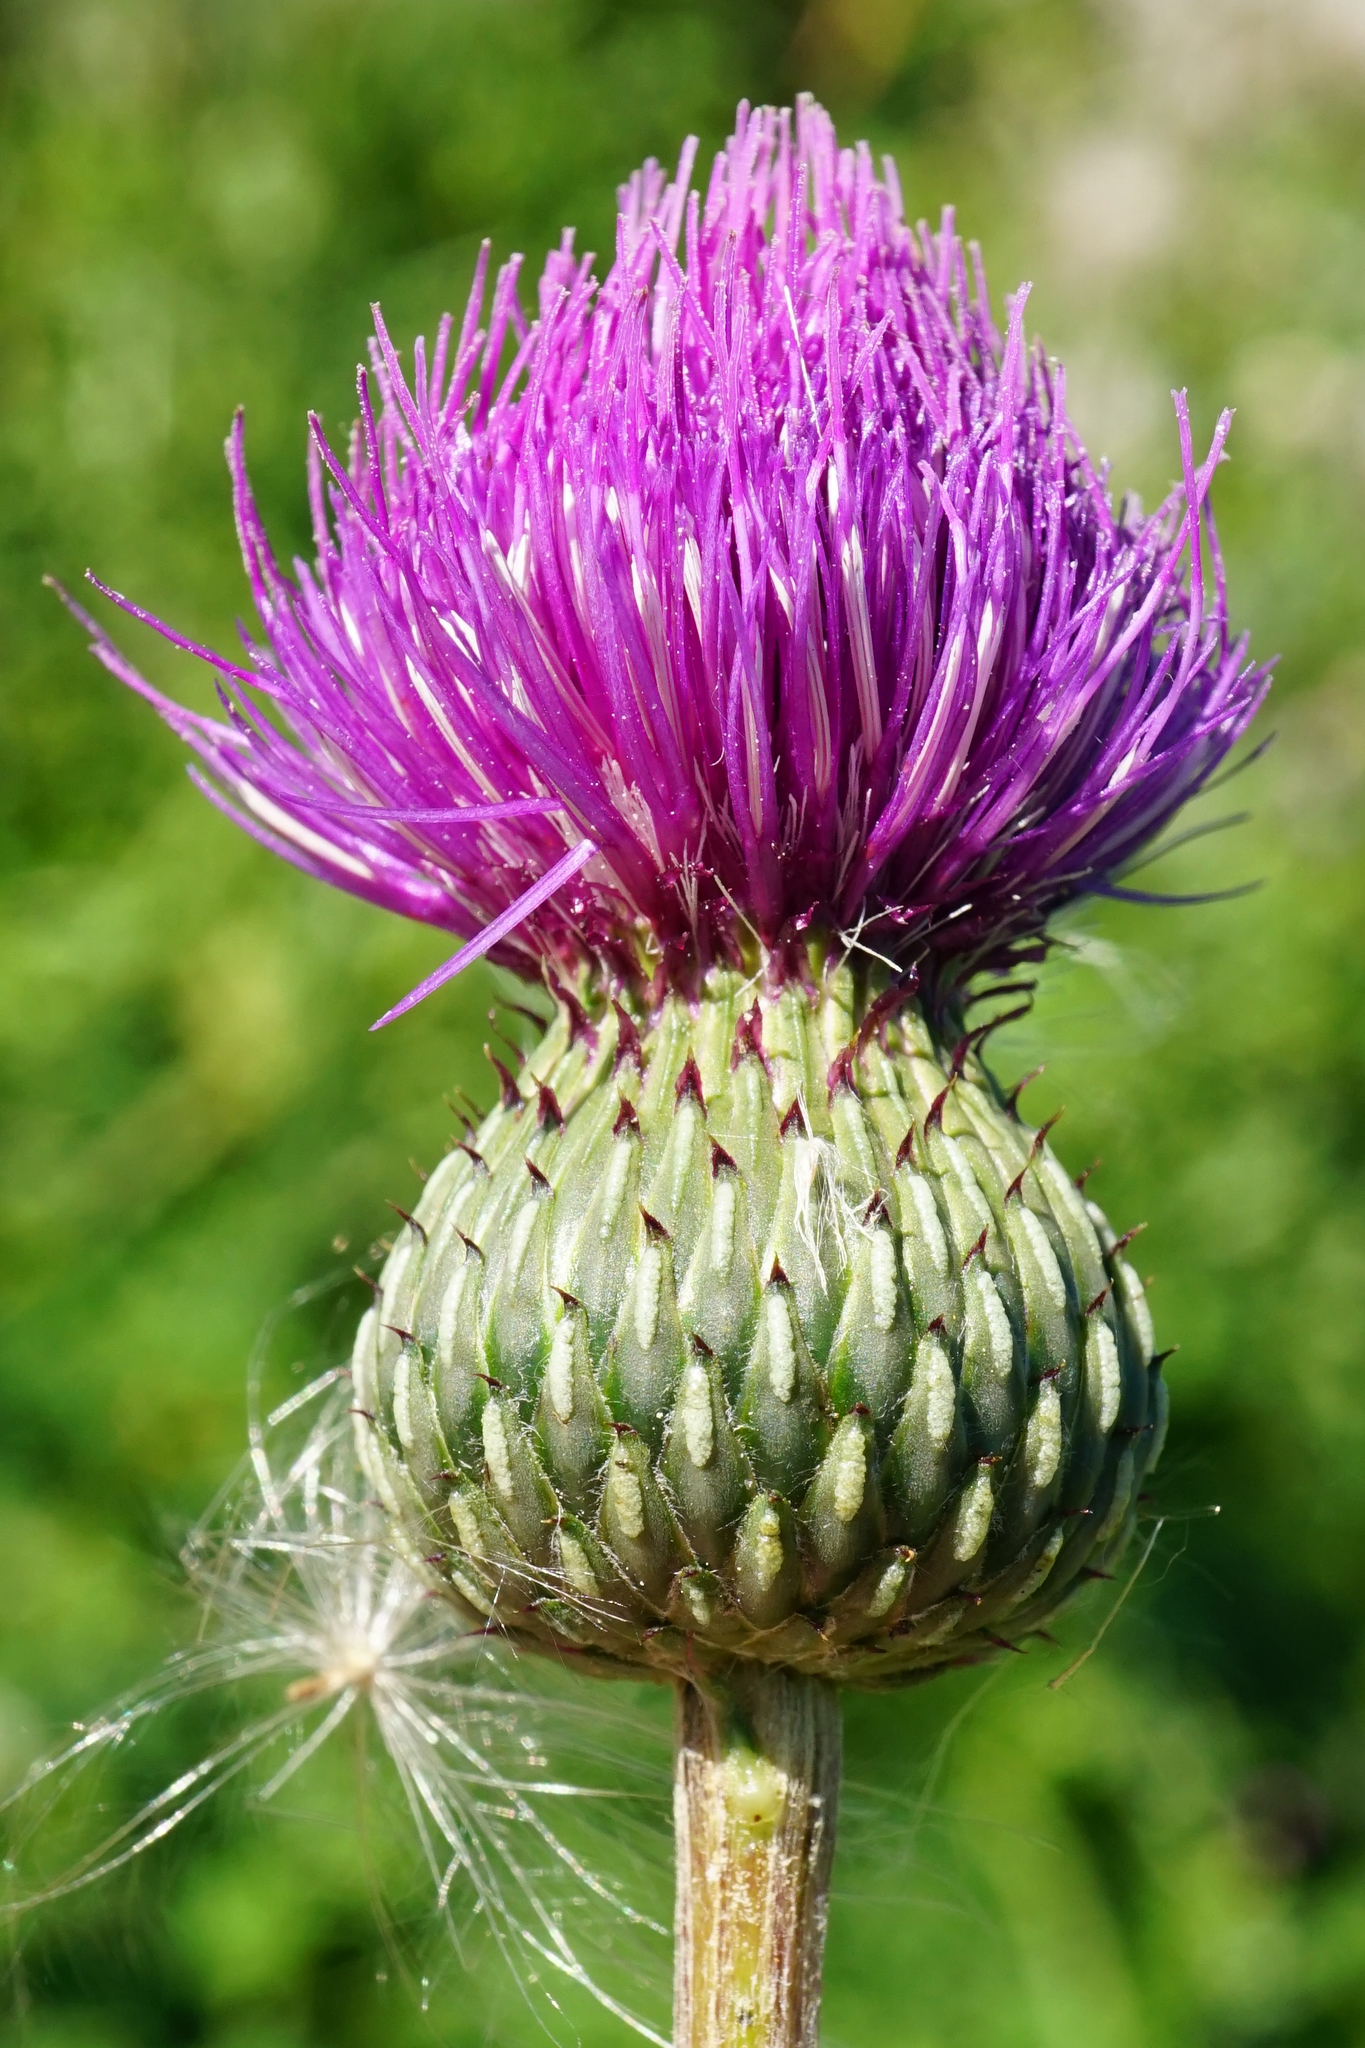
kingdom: Plantae
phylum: Tracheophyta
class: Magnoliopsida
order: Asterales
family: Asteraceae
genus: Cirsium
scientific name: Cirsium canum
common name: Queen anne's thistle
